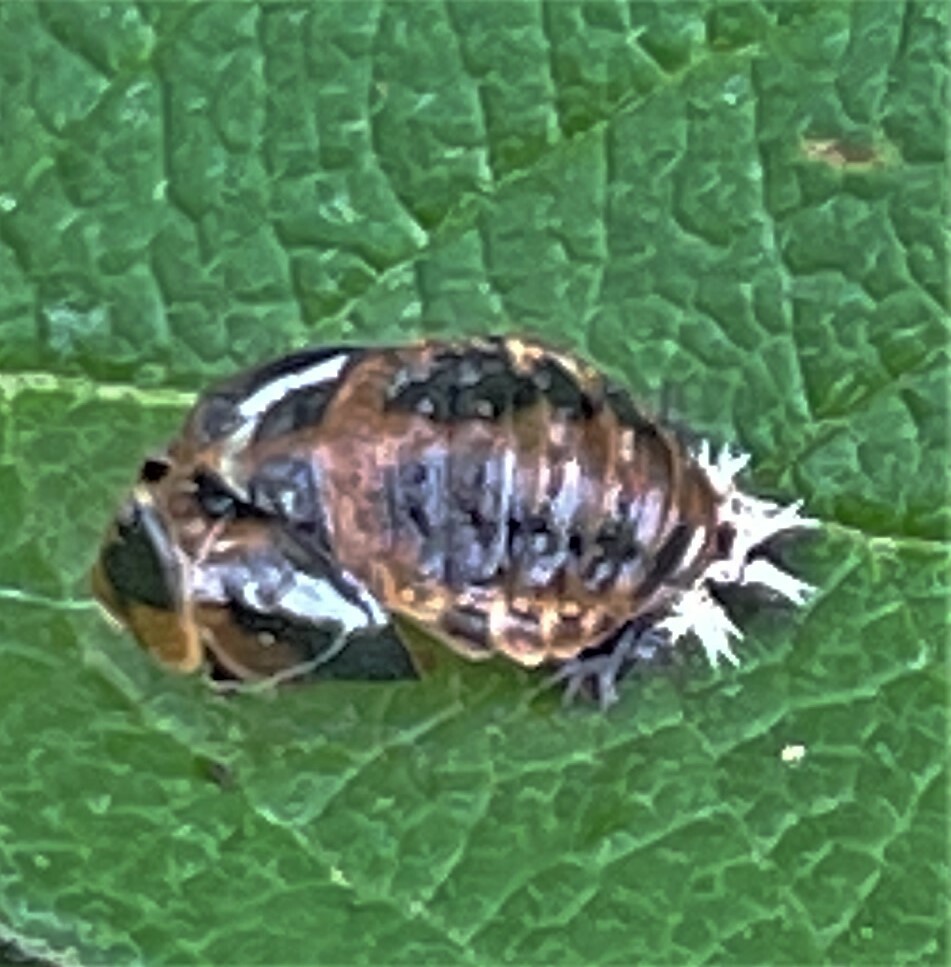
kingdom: Animalia
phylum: Arthropoda
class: Insecta
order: Coleoptera
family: Coccinellidae
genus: Harmonia
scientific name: Harmonia axyridis
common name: Harlequin ladybird
